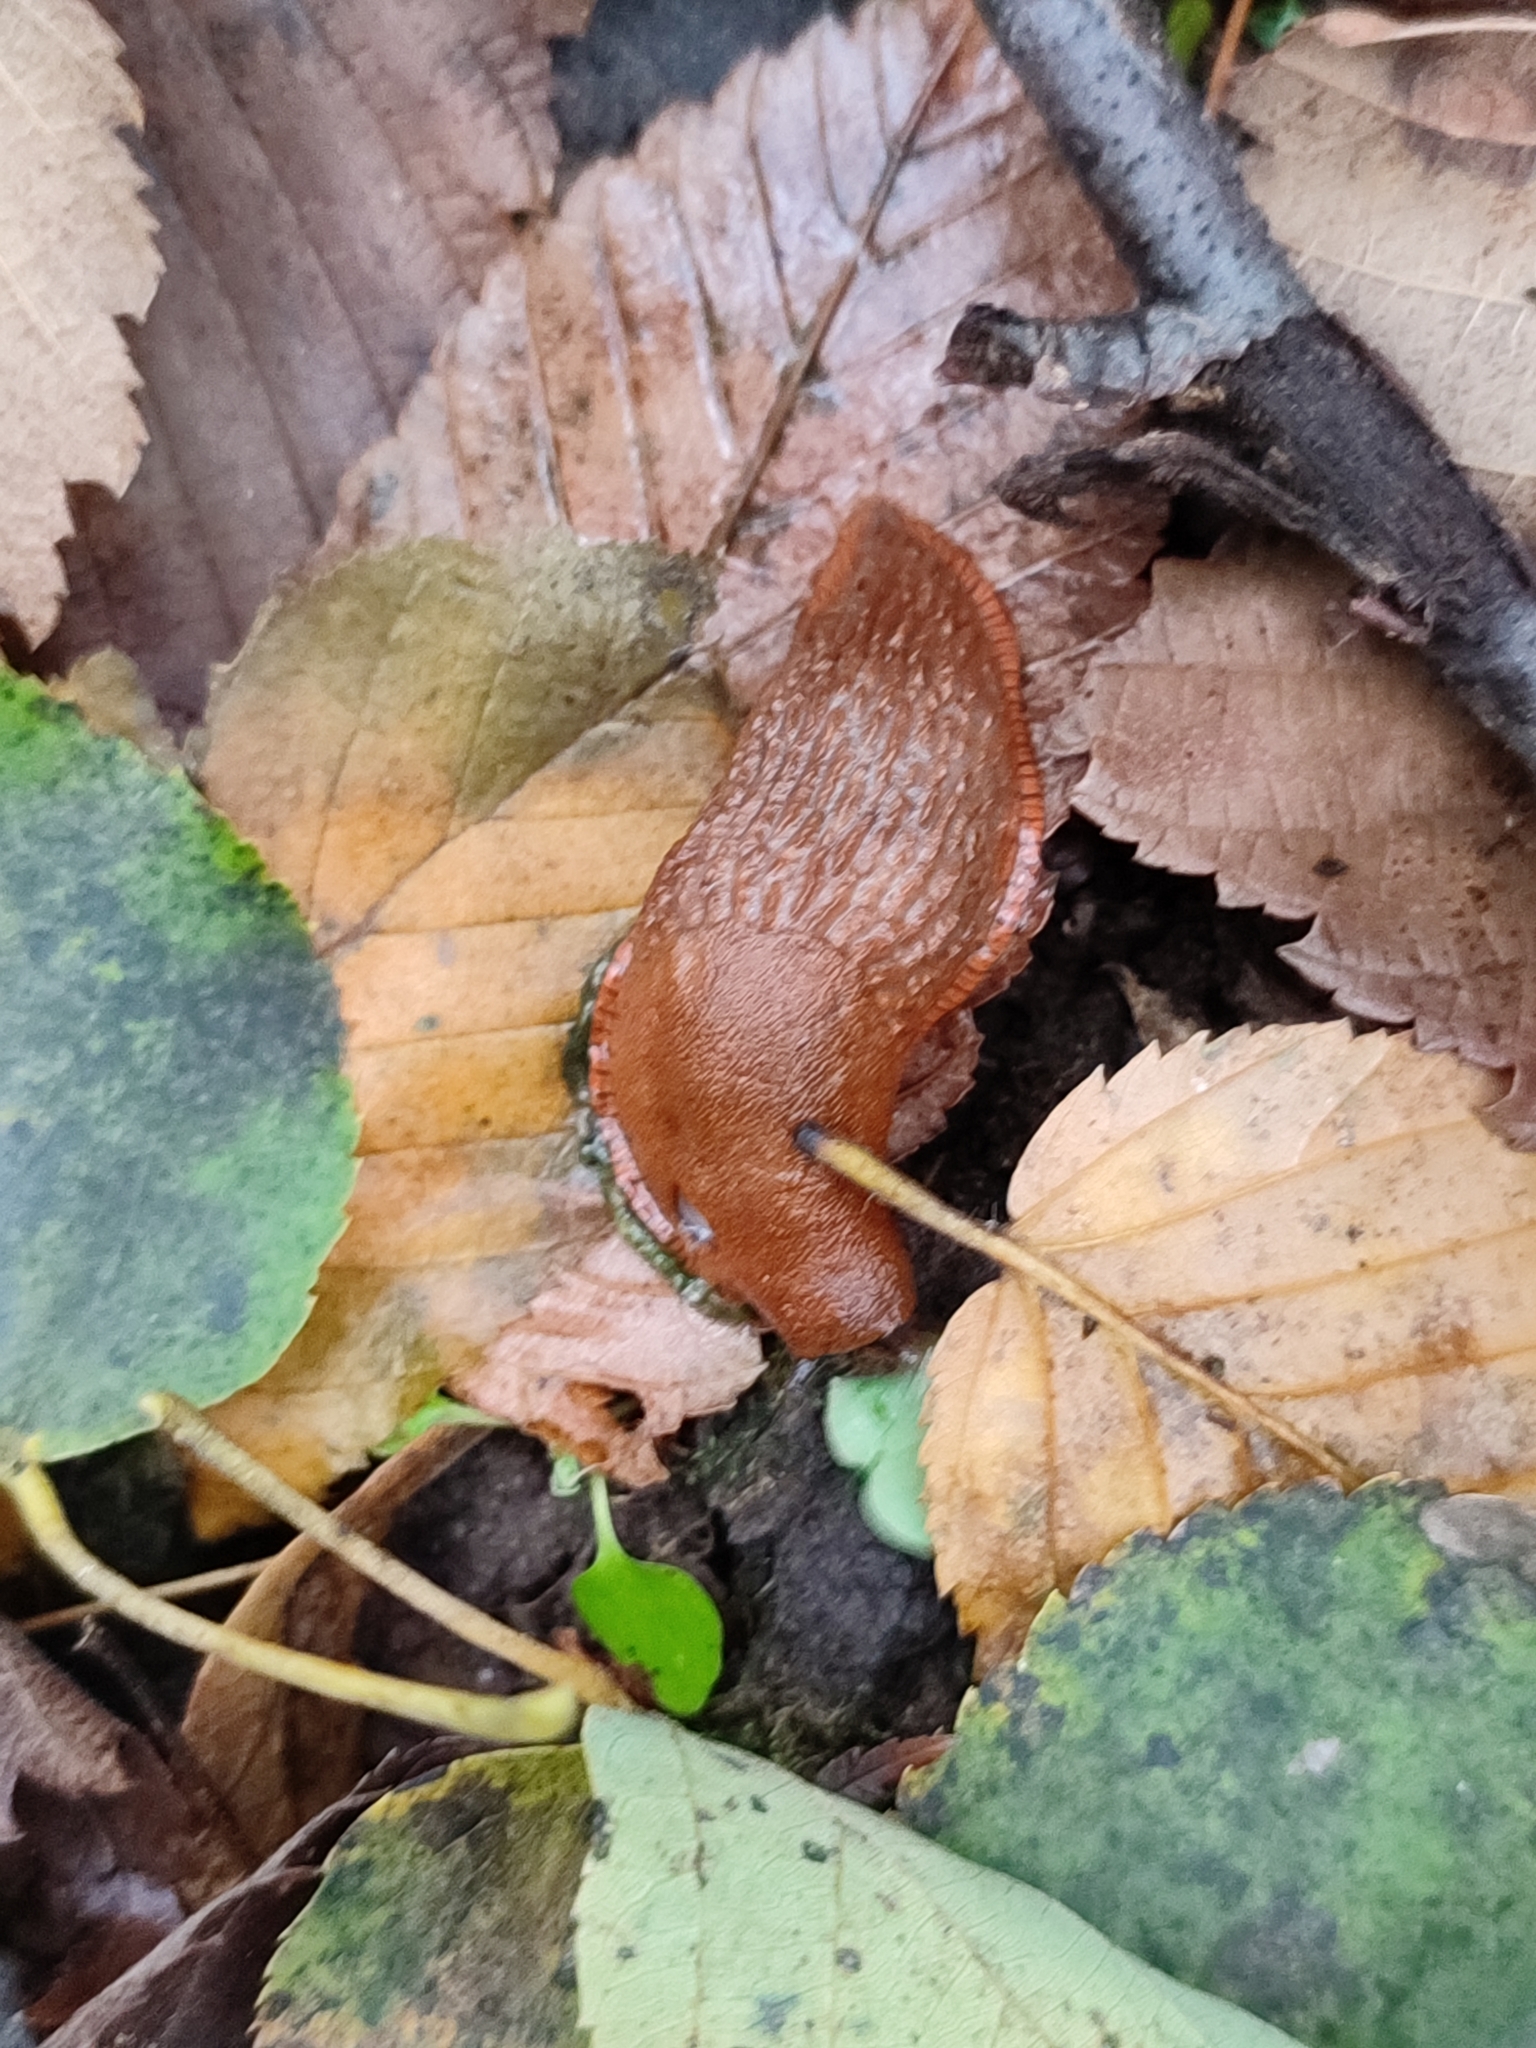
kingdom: Animalia
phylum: Mollusca
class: Gastropoda
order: Stylommatophora
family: Arionidae
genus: Arion
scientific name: Arion vulgaris
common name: Lusitanian slug
